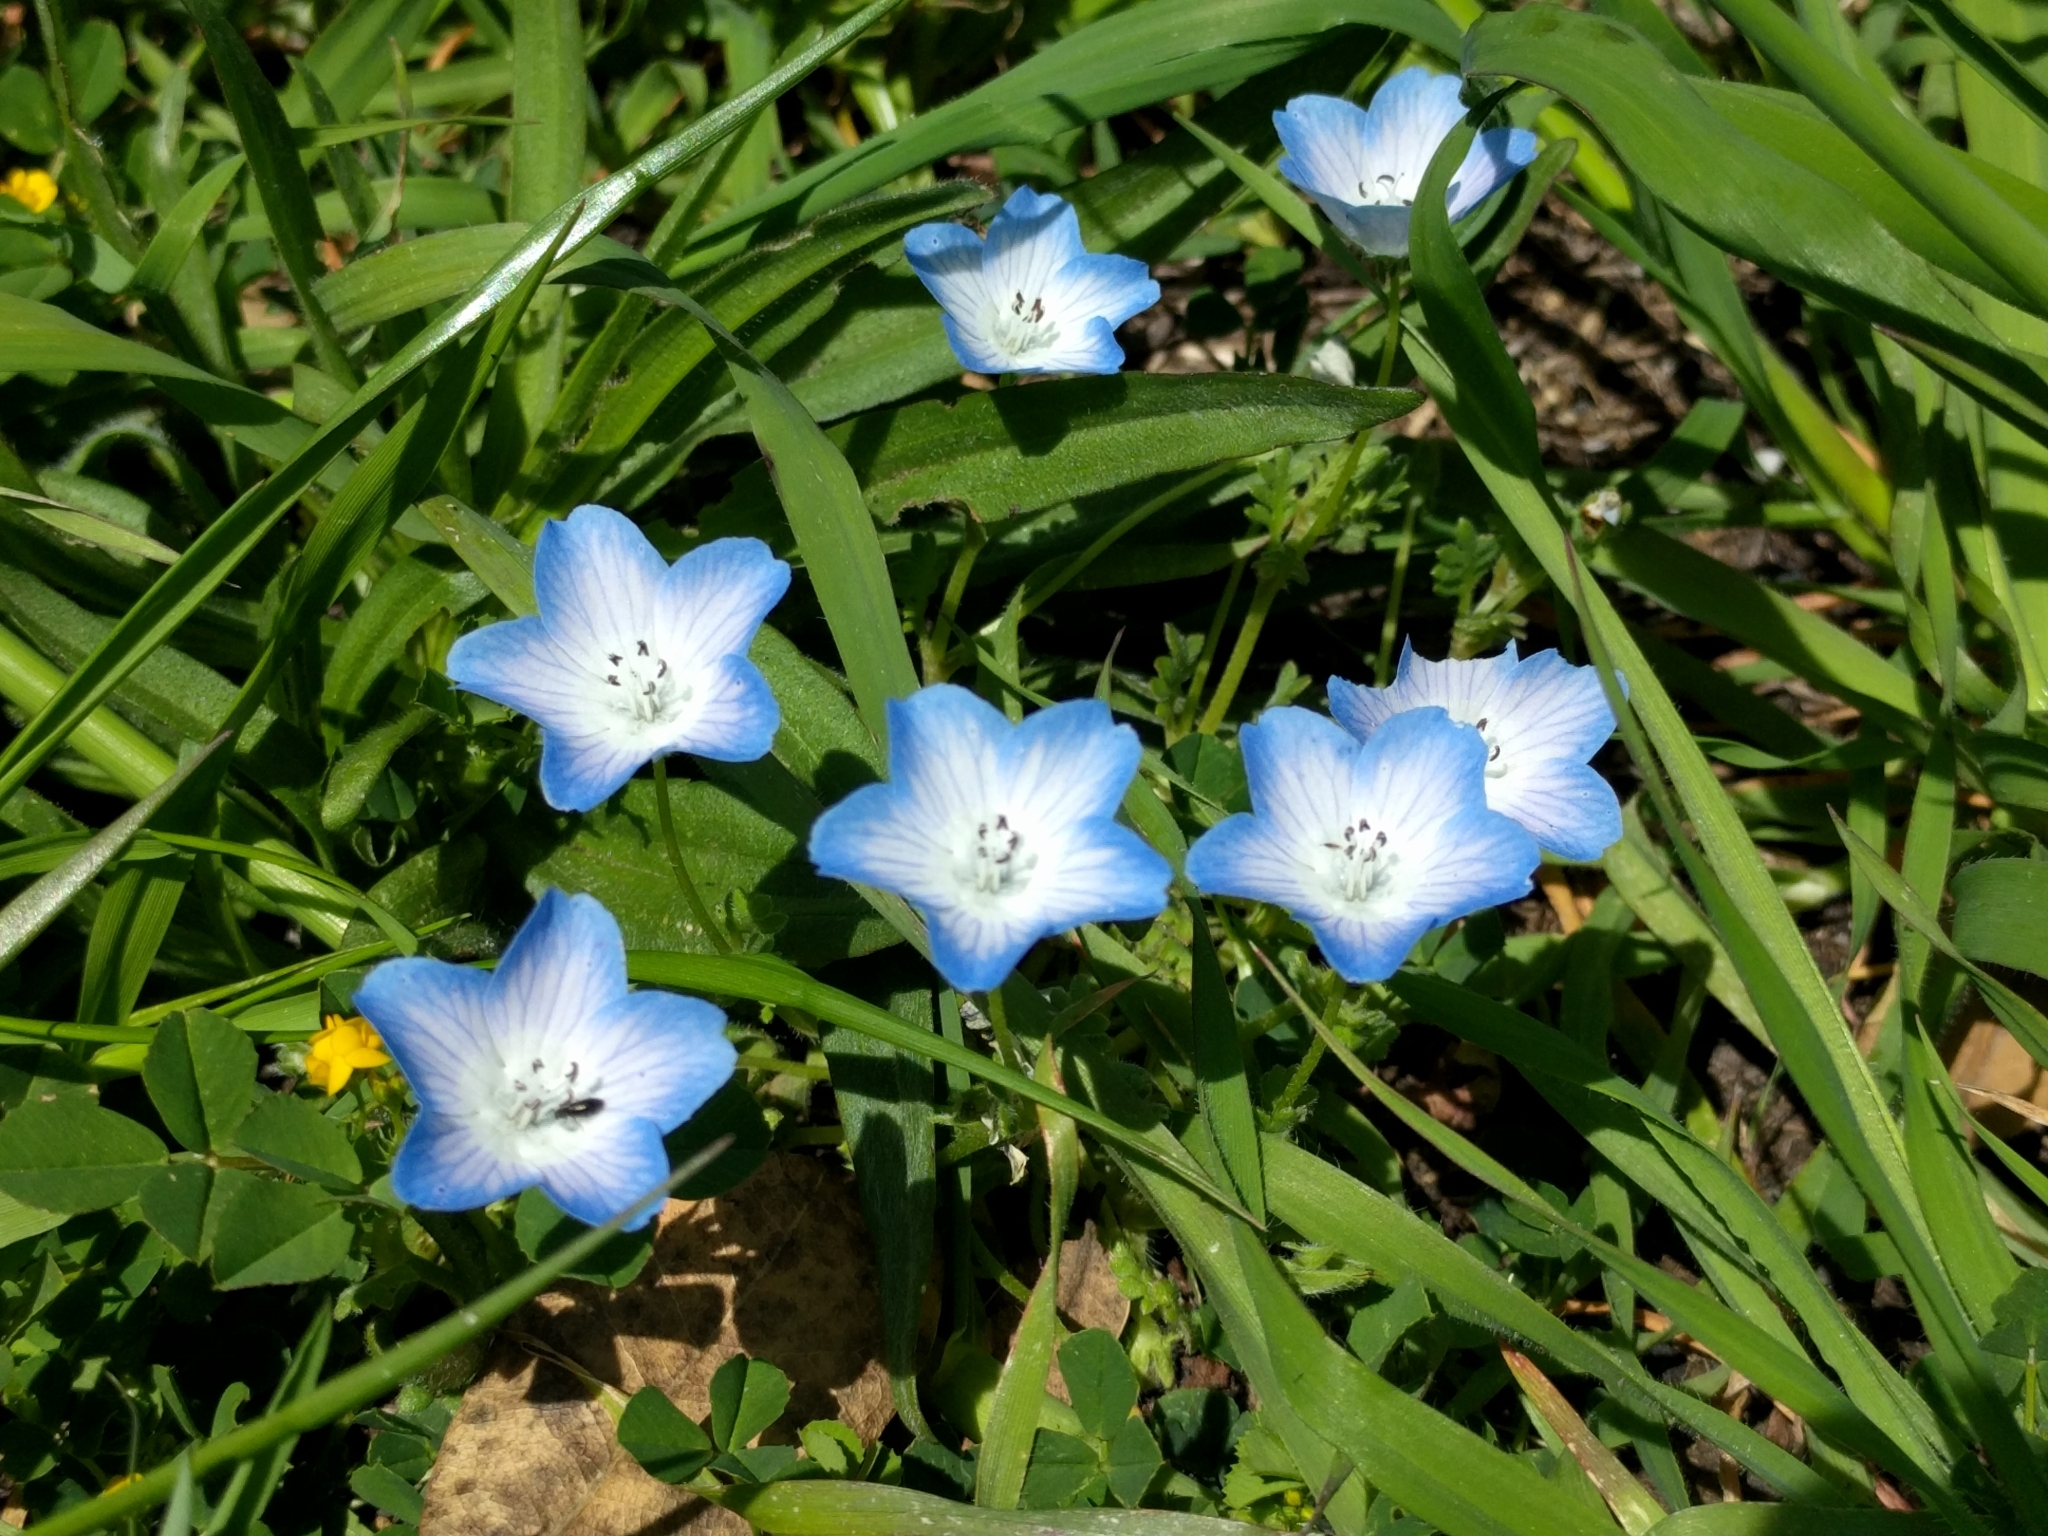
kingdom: Plantae
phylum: Tracheophyta
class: Magnoliopsida
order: Boraginales
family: Hydrophyllaceae
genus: Nemophila
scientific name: Nemophila menziesii
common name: Baby's-blue-eyes
